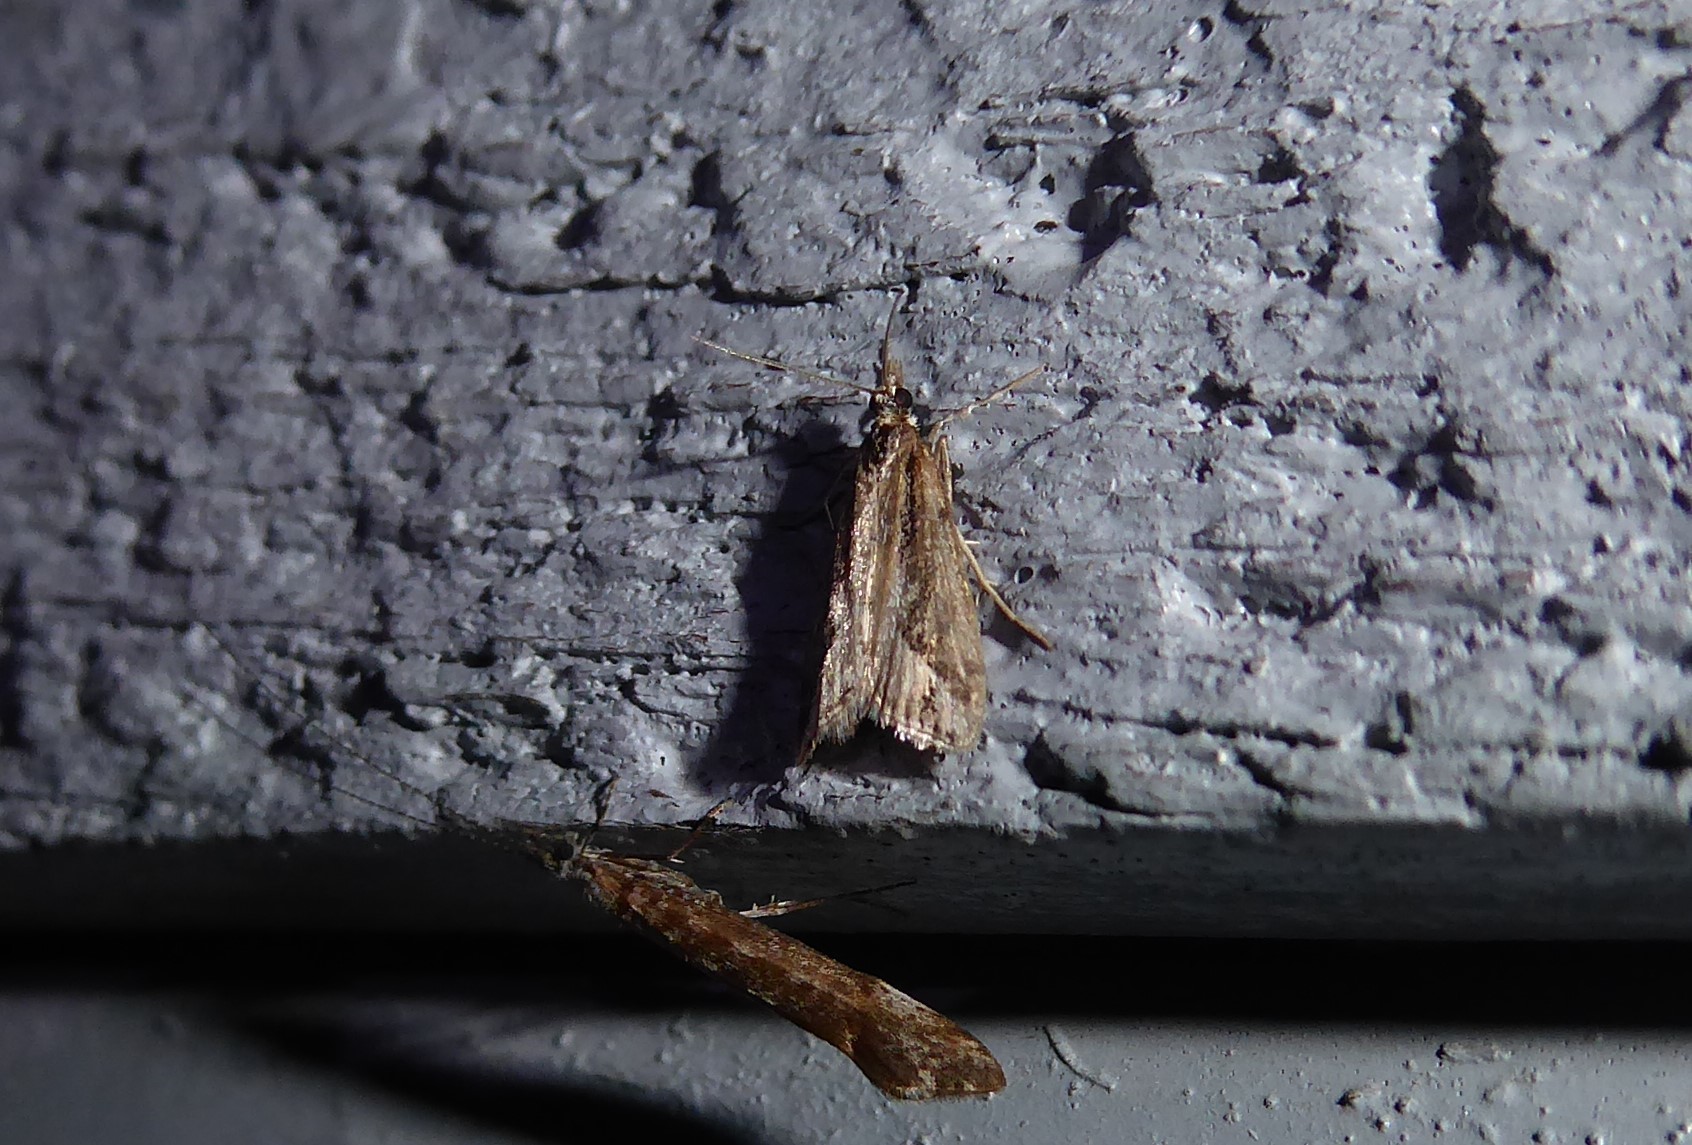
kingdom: Animalia
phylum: Arthropoda
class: Insecta
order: Lepidoptera
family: Crambidae
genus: Eudonia
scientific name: Eudonia steropaea
